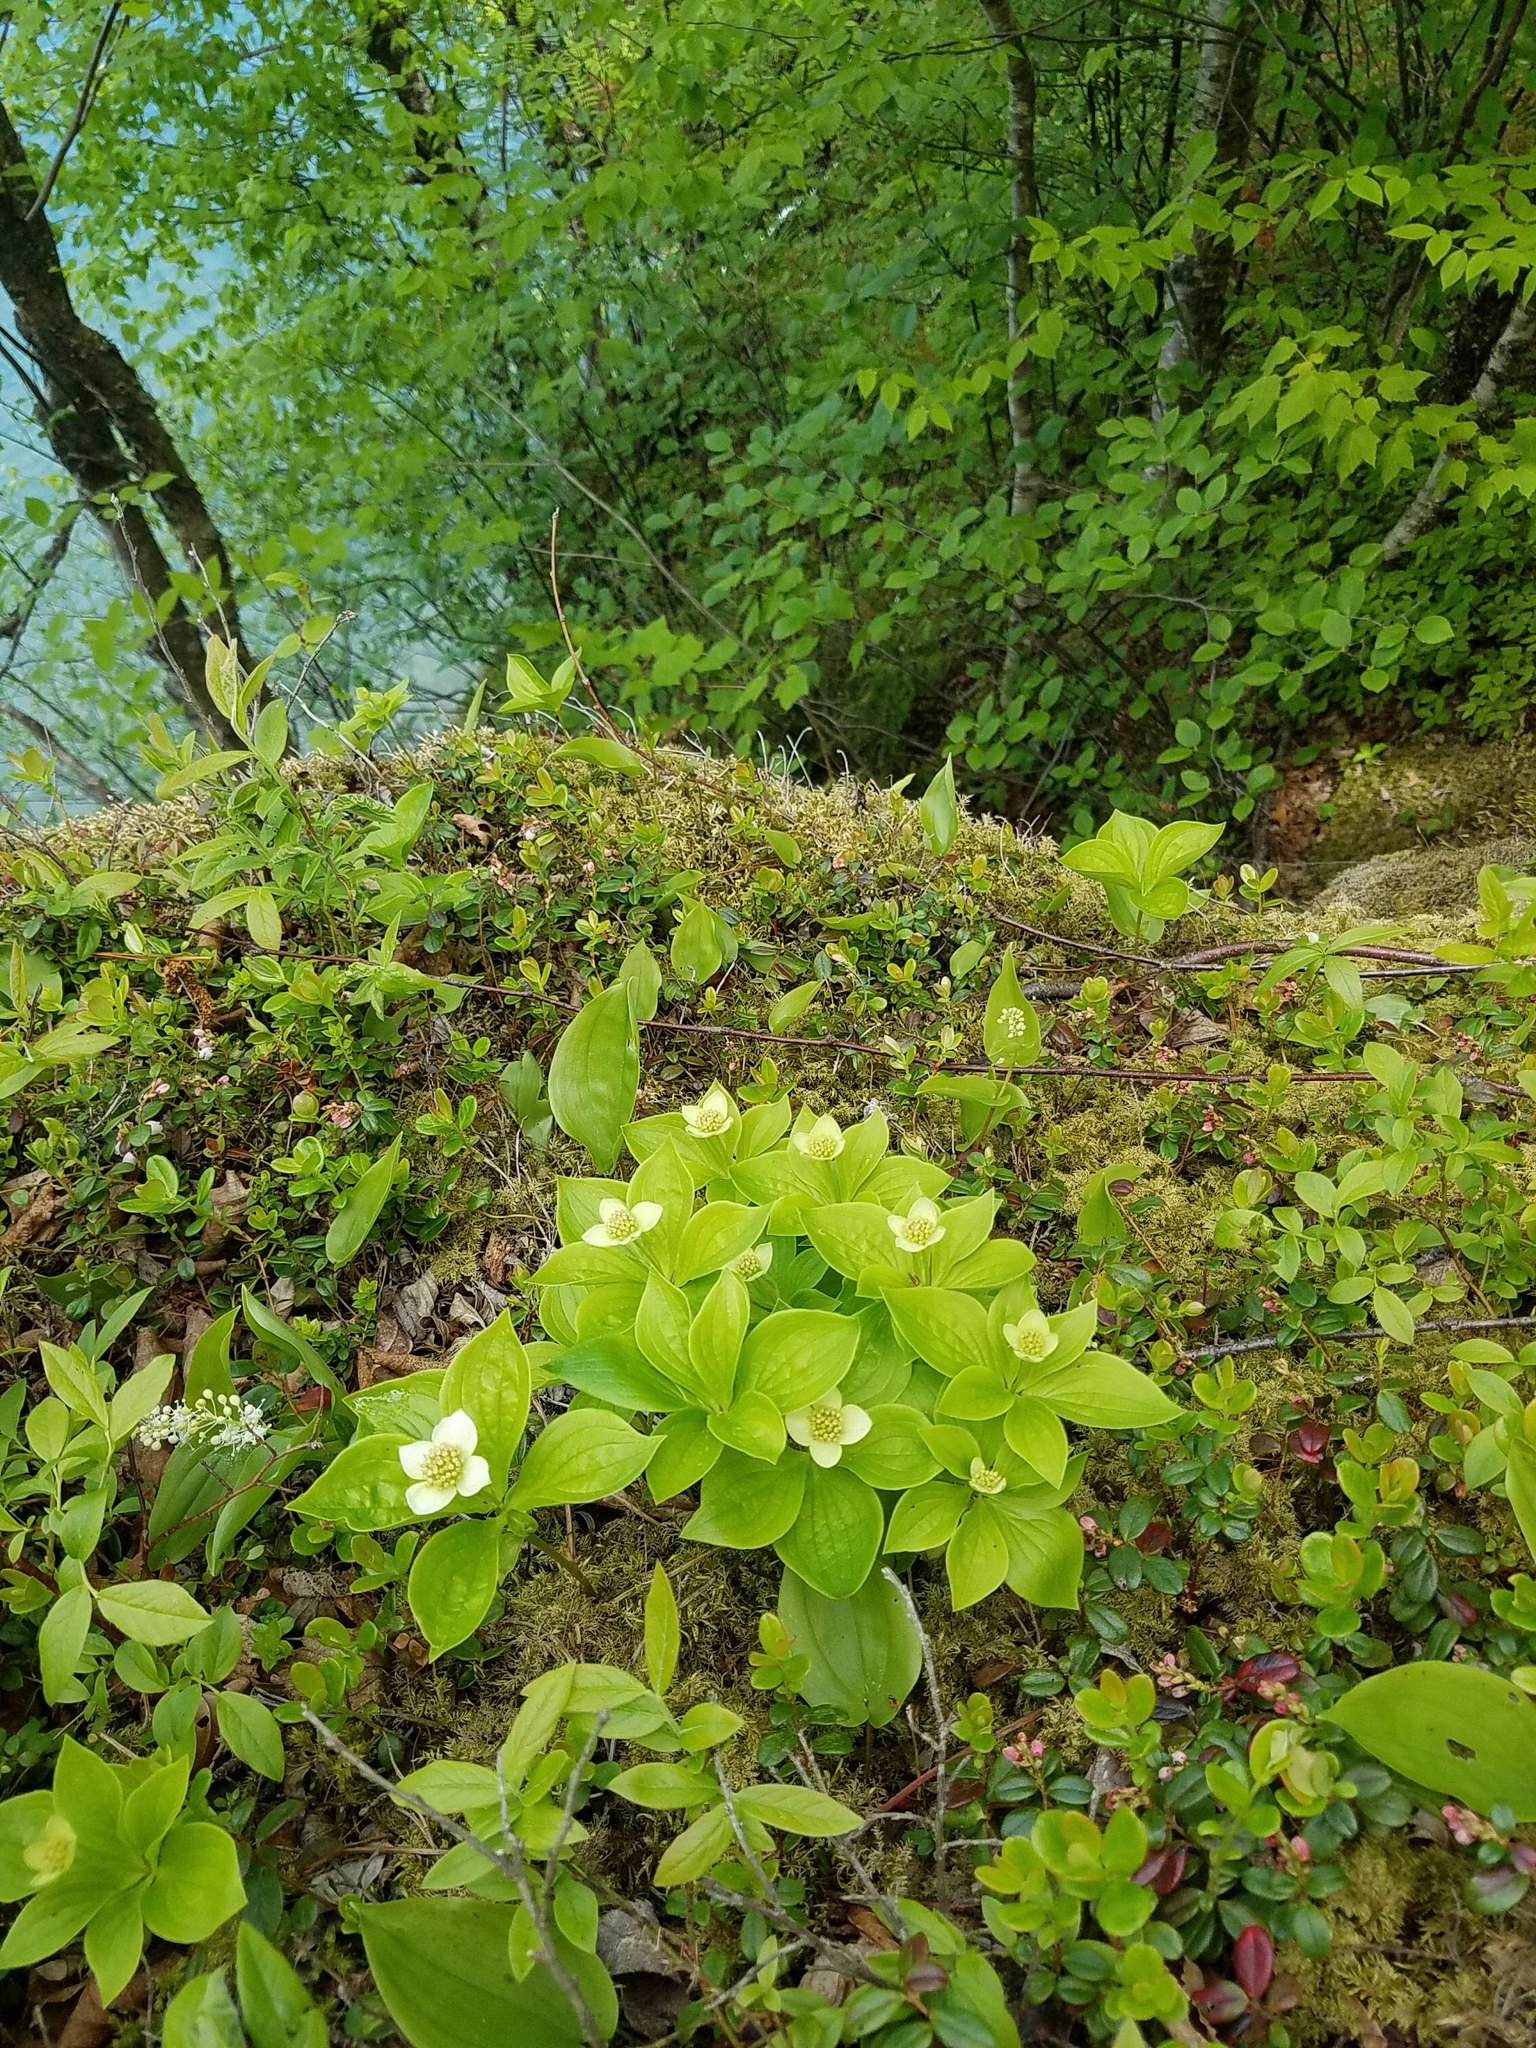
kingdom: Plantae
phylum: Tracheophyta
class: Magnoliopsida
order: Cornales
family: Cornaceae
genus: Cornus
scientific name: Cornus canadensis
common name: Creeping dogwood
